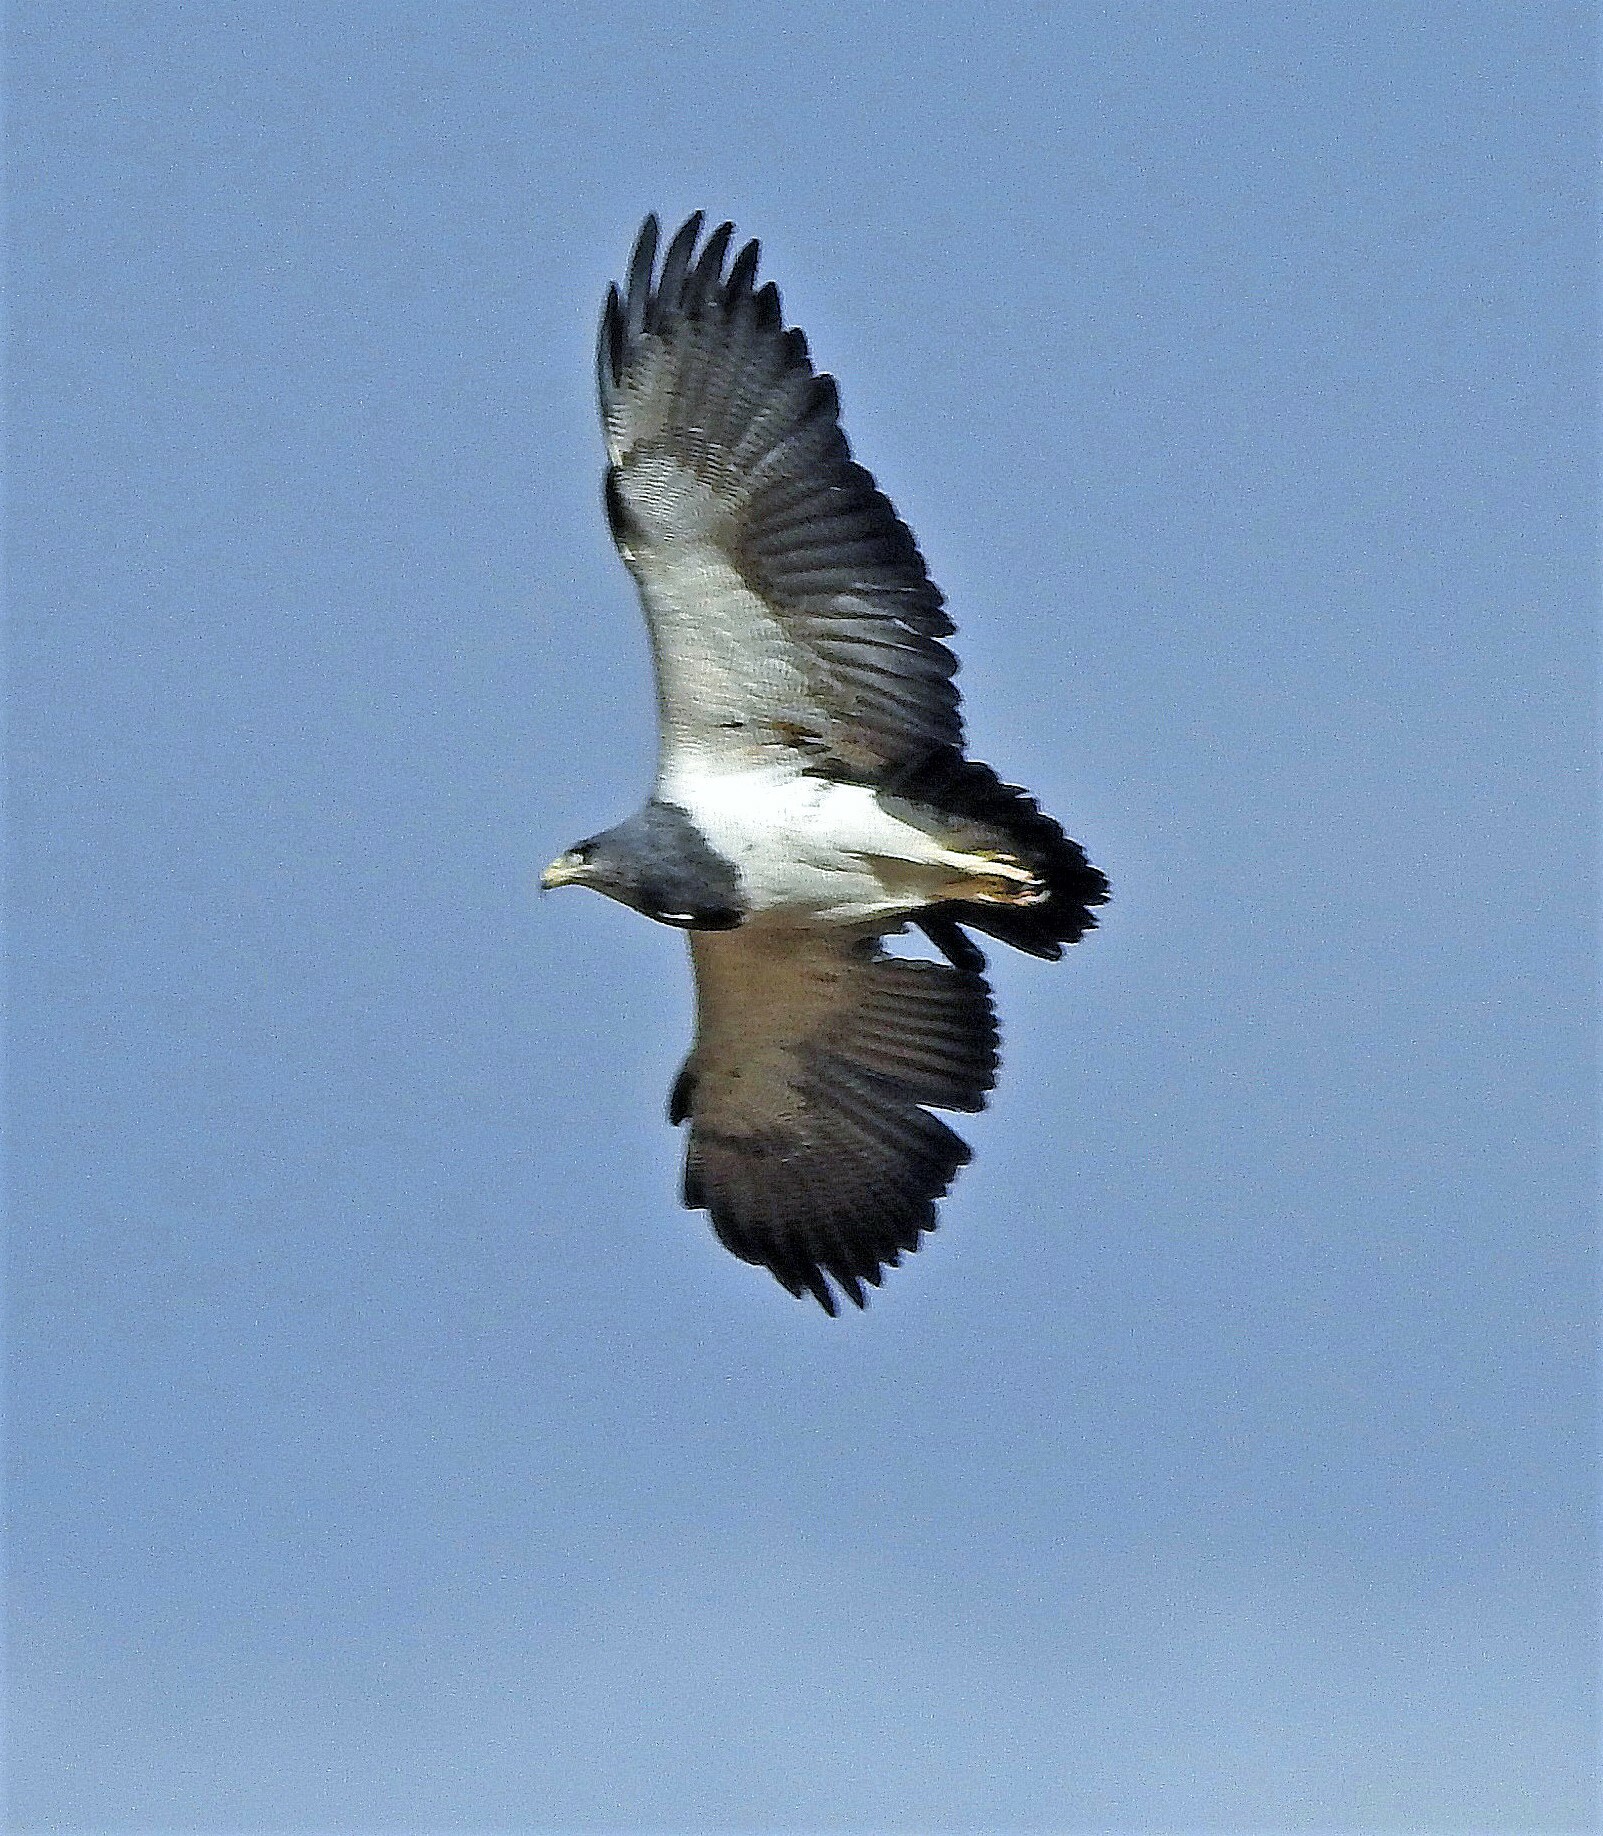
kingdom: Animalia
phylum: Chordata
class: Aves
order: Accipitriformes
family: Accipitridae
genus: Geranoaetus
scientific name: Geranoaetus melanoleucus
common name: Black-chested buzzard-eagle
